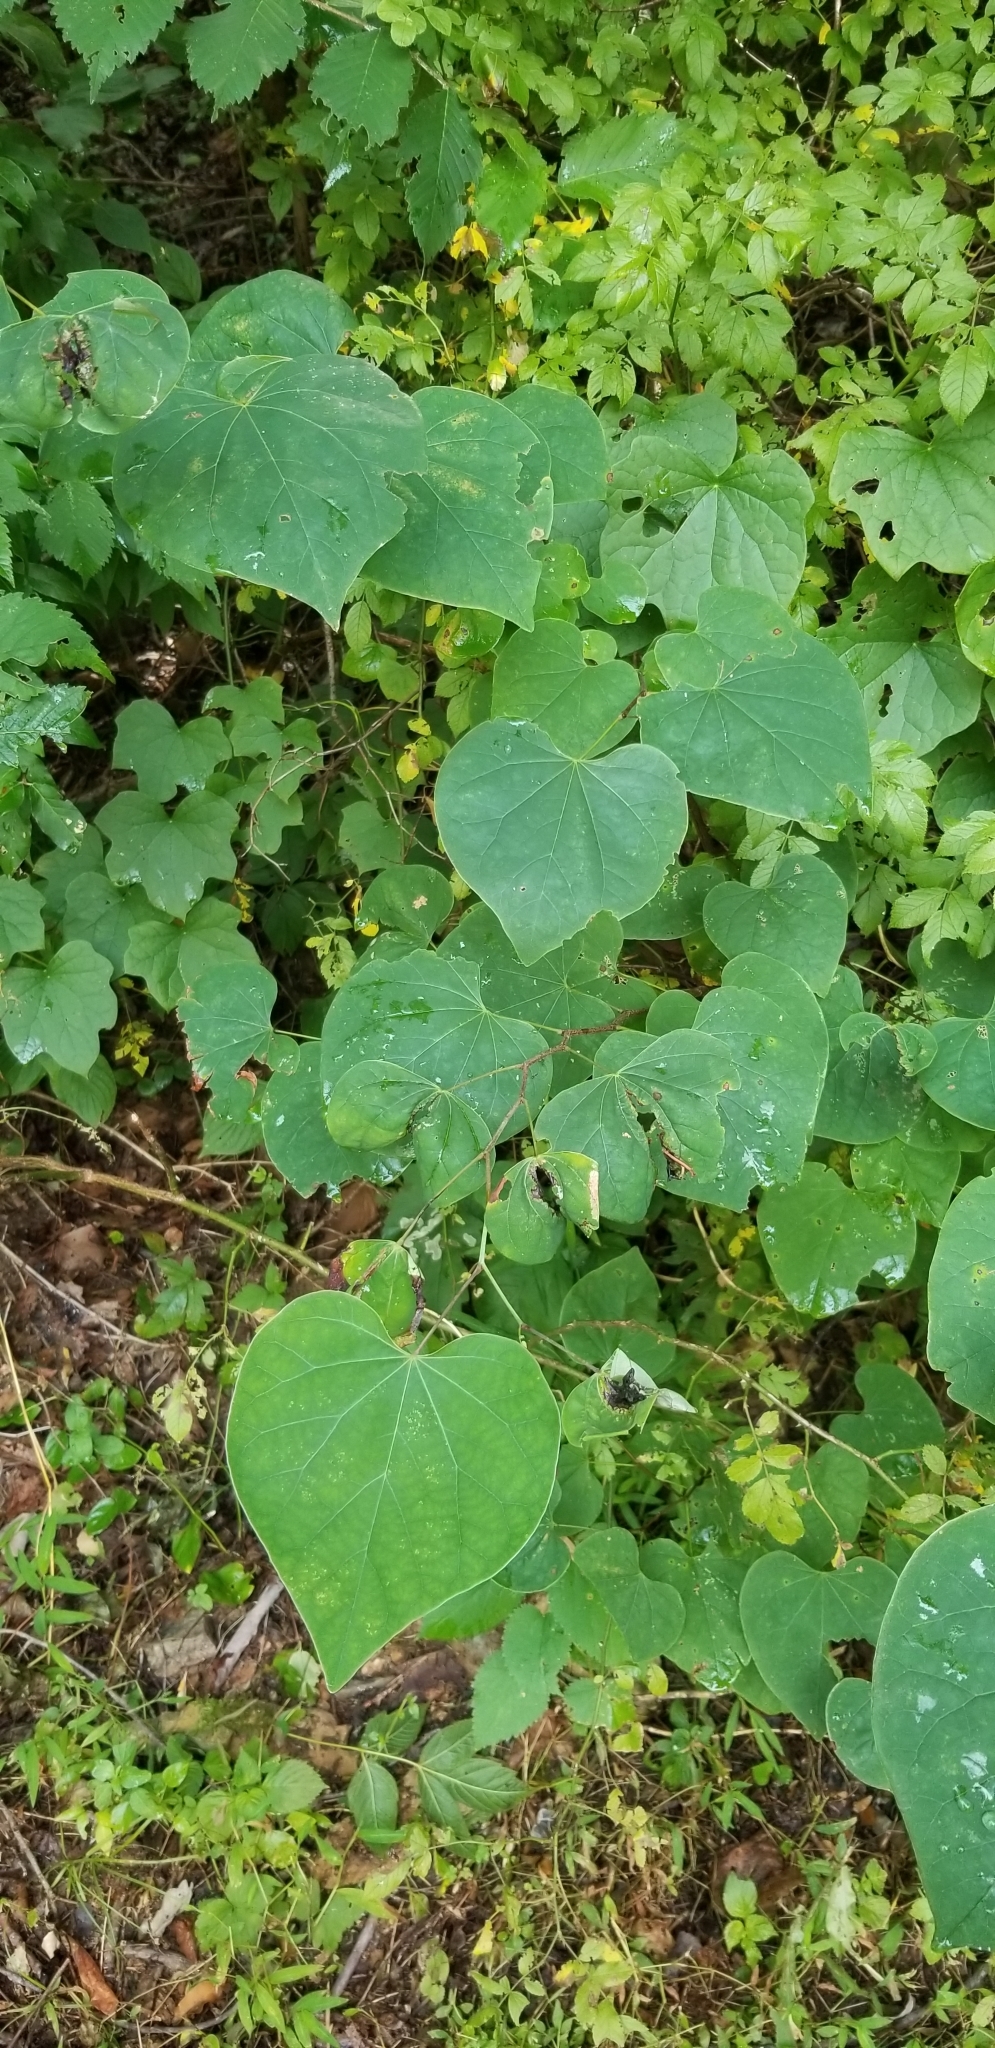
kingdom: Plantae
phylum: Tracheophyta
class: Magnoliopsida
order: Fabales
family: Fabaceae
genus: Cercis
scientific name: Cercis canadensis
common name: Eastern redbud
